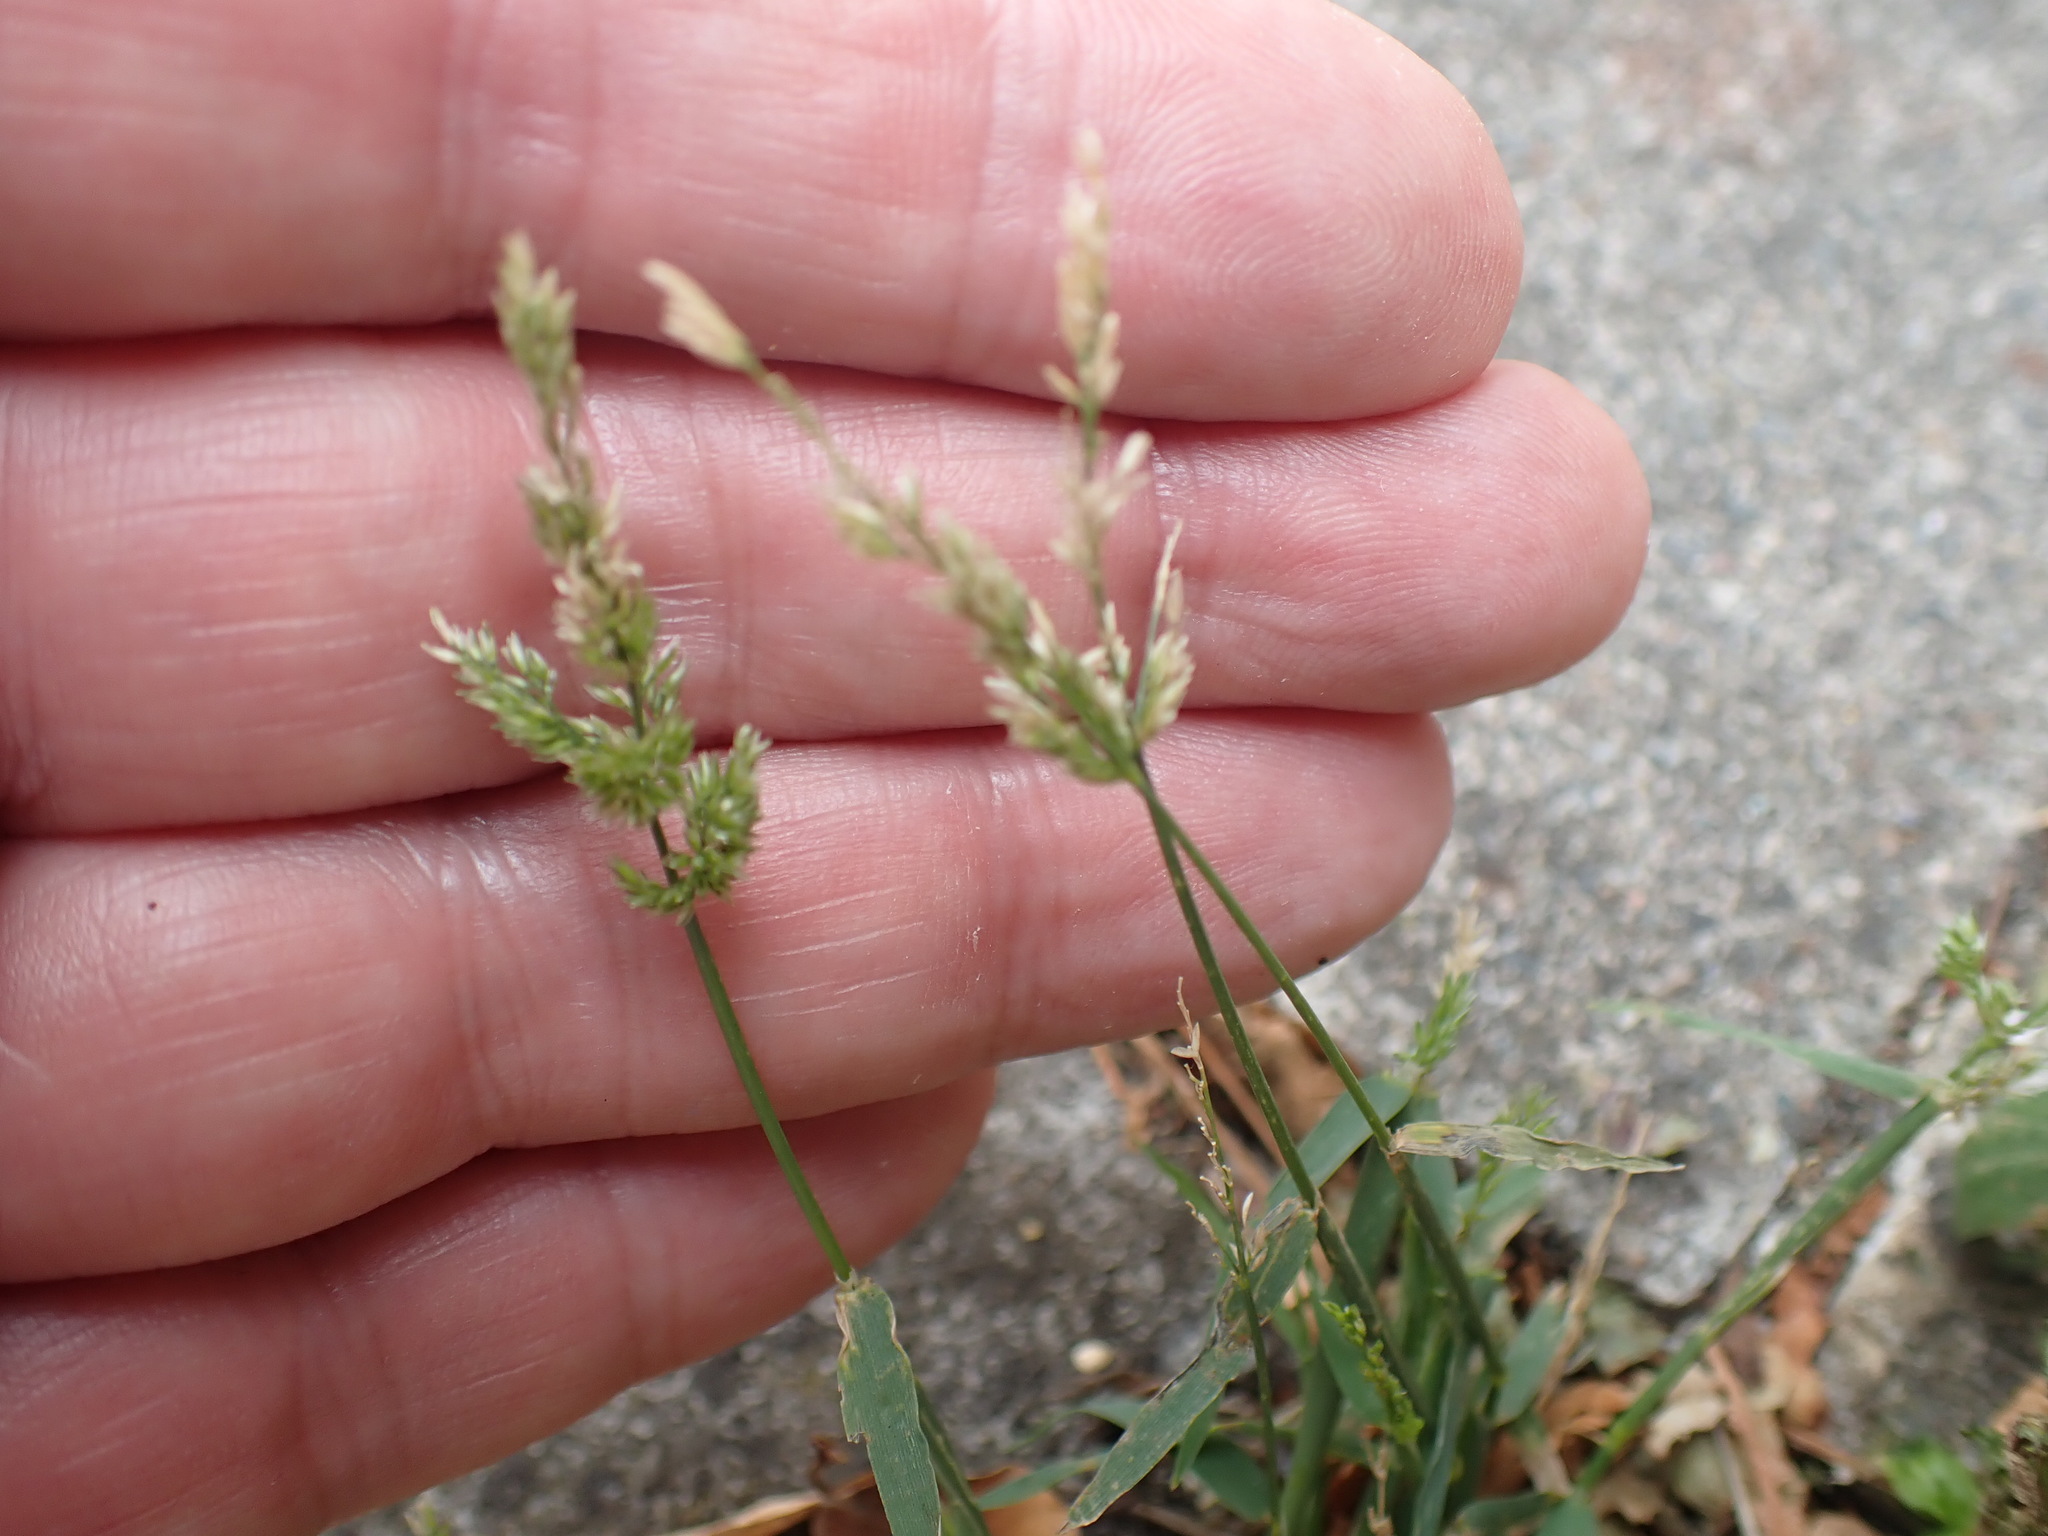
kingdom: Plantae
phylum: Tracheophyta
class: Liliopsida
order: Poales
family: Poaceae
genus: Polypogon
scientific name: Polypogon viridis
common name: Water bent
